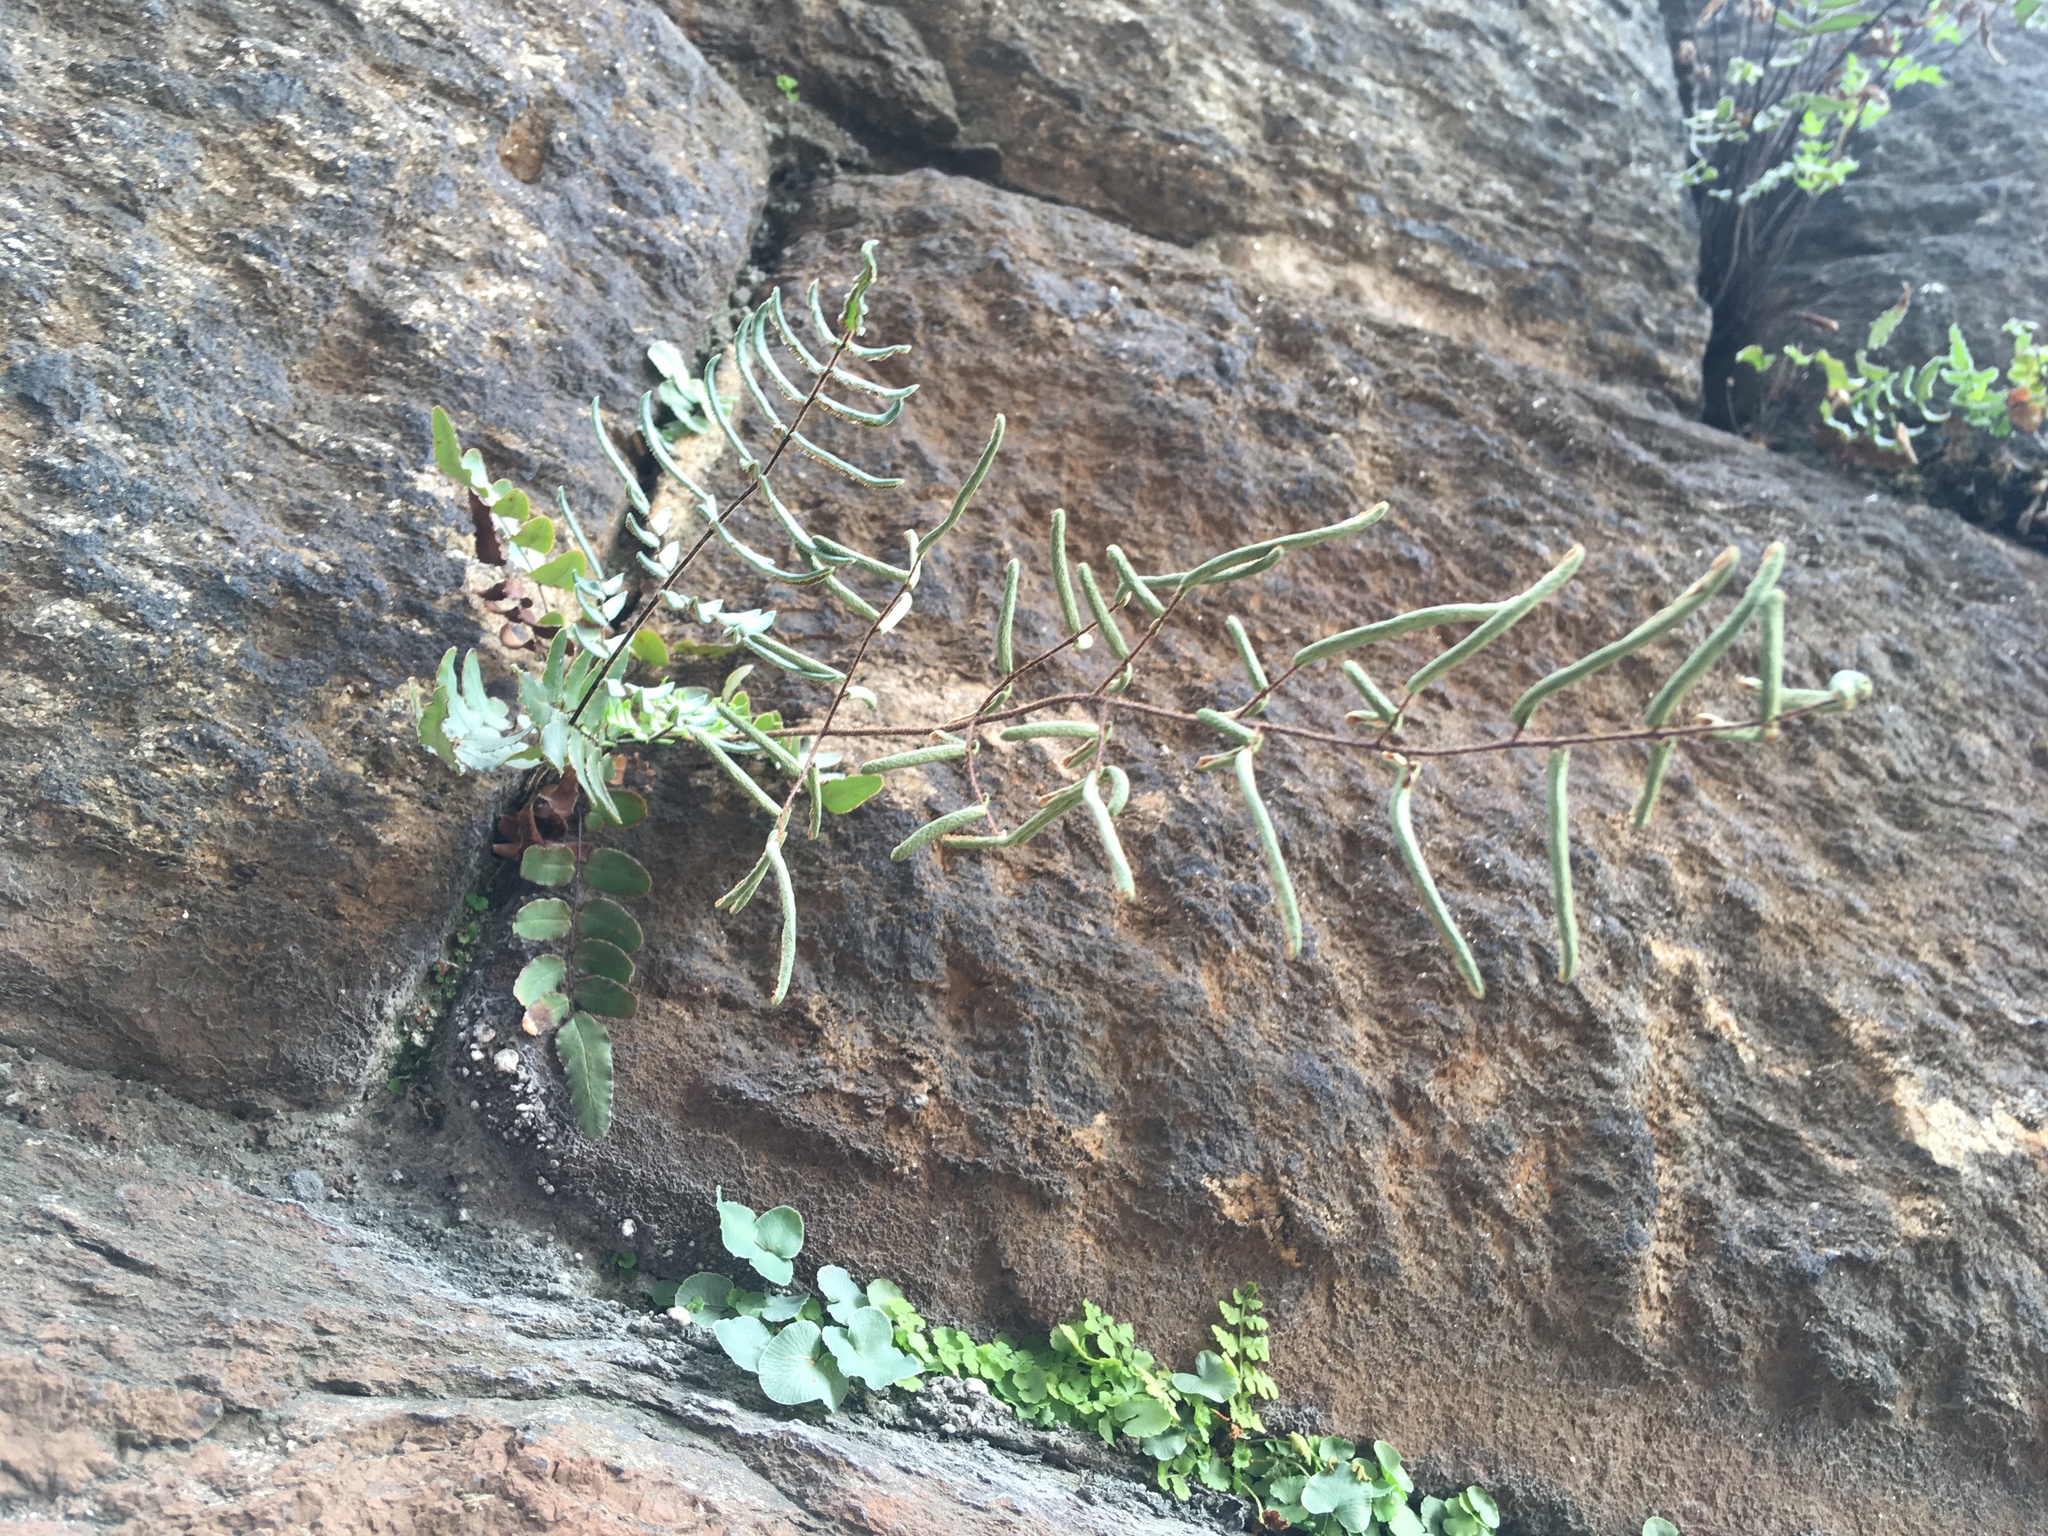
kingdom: Plantae
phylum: Tracheophyta
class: Polypodiopsida
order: Polypodiales
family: Pteridaceae
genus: Pellaea
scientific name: Pellaea atropurpurea
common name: Hairy cliffbrake
